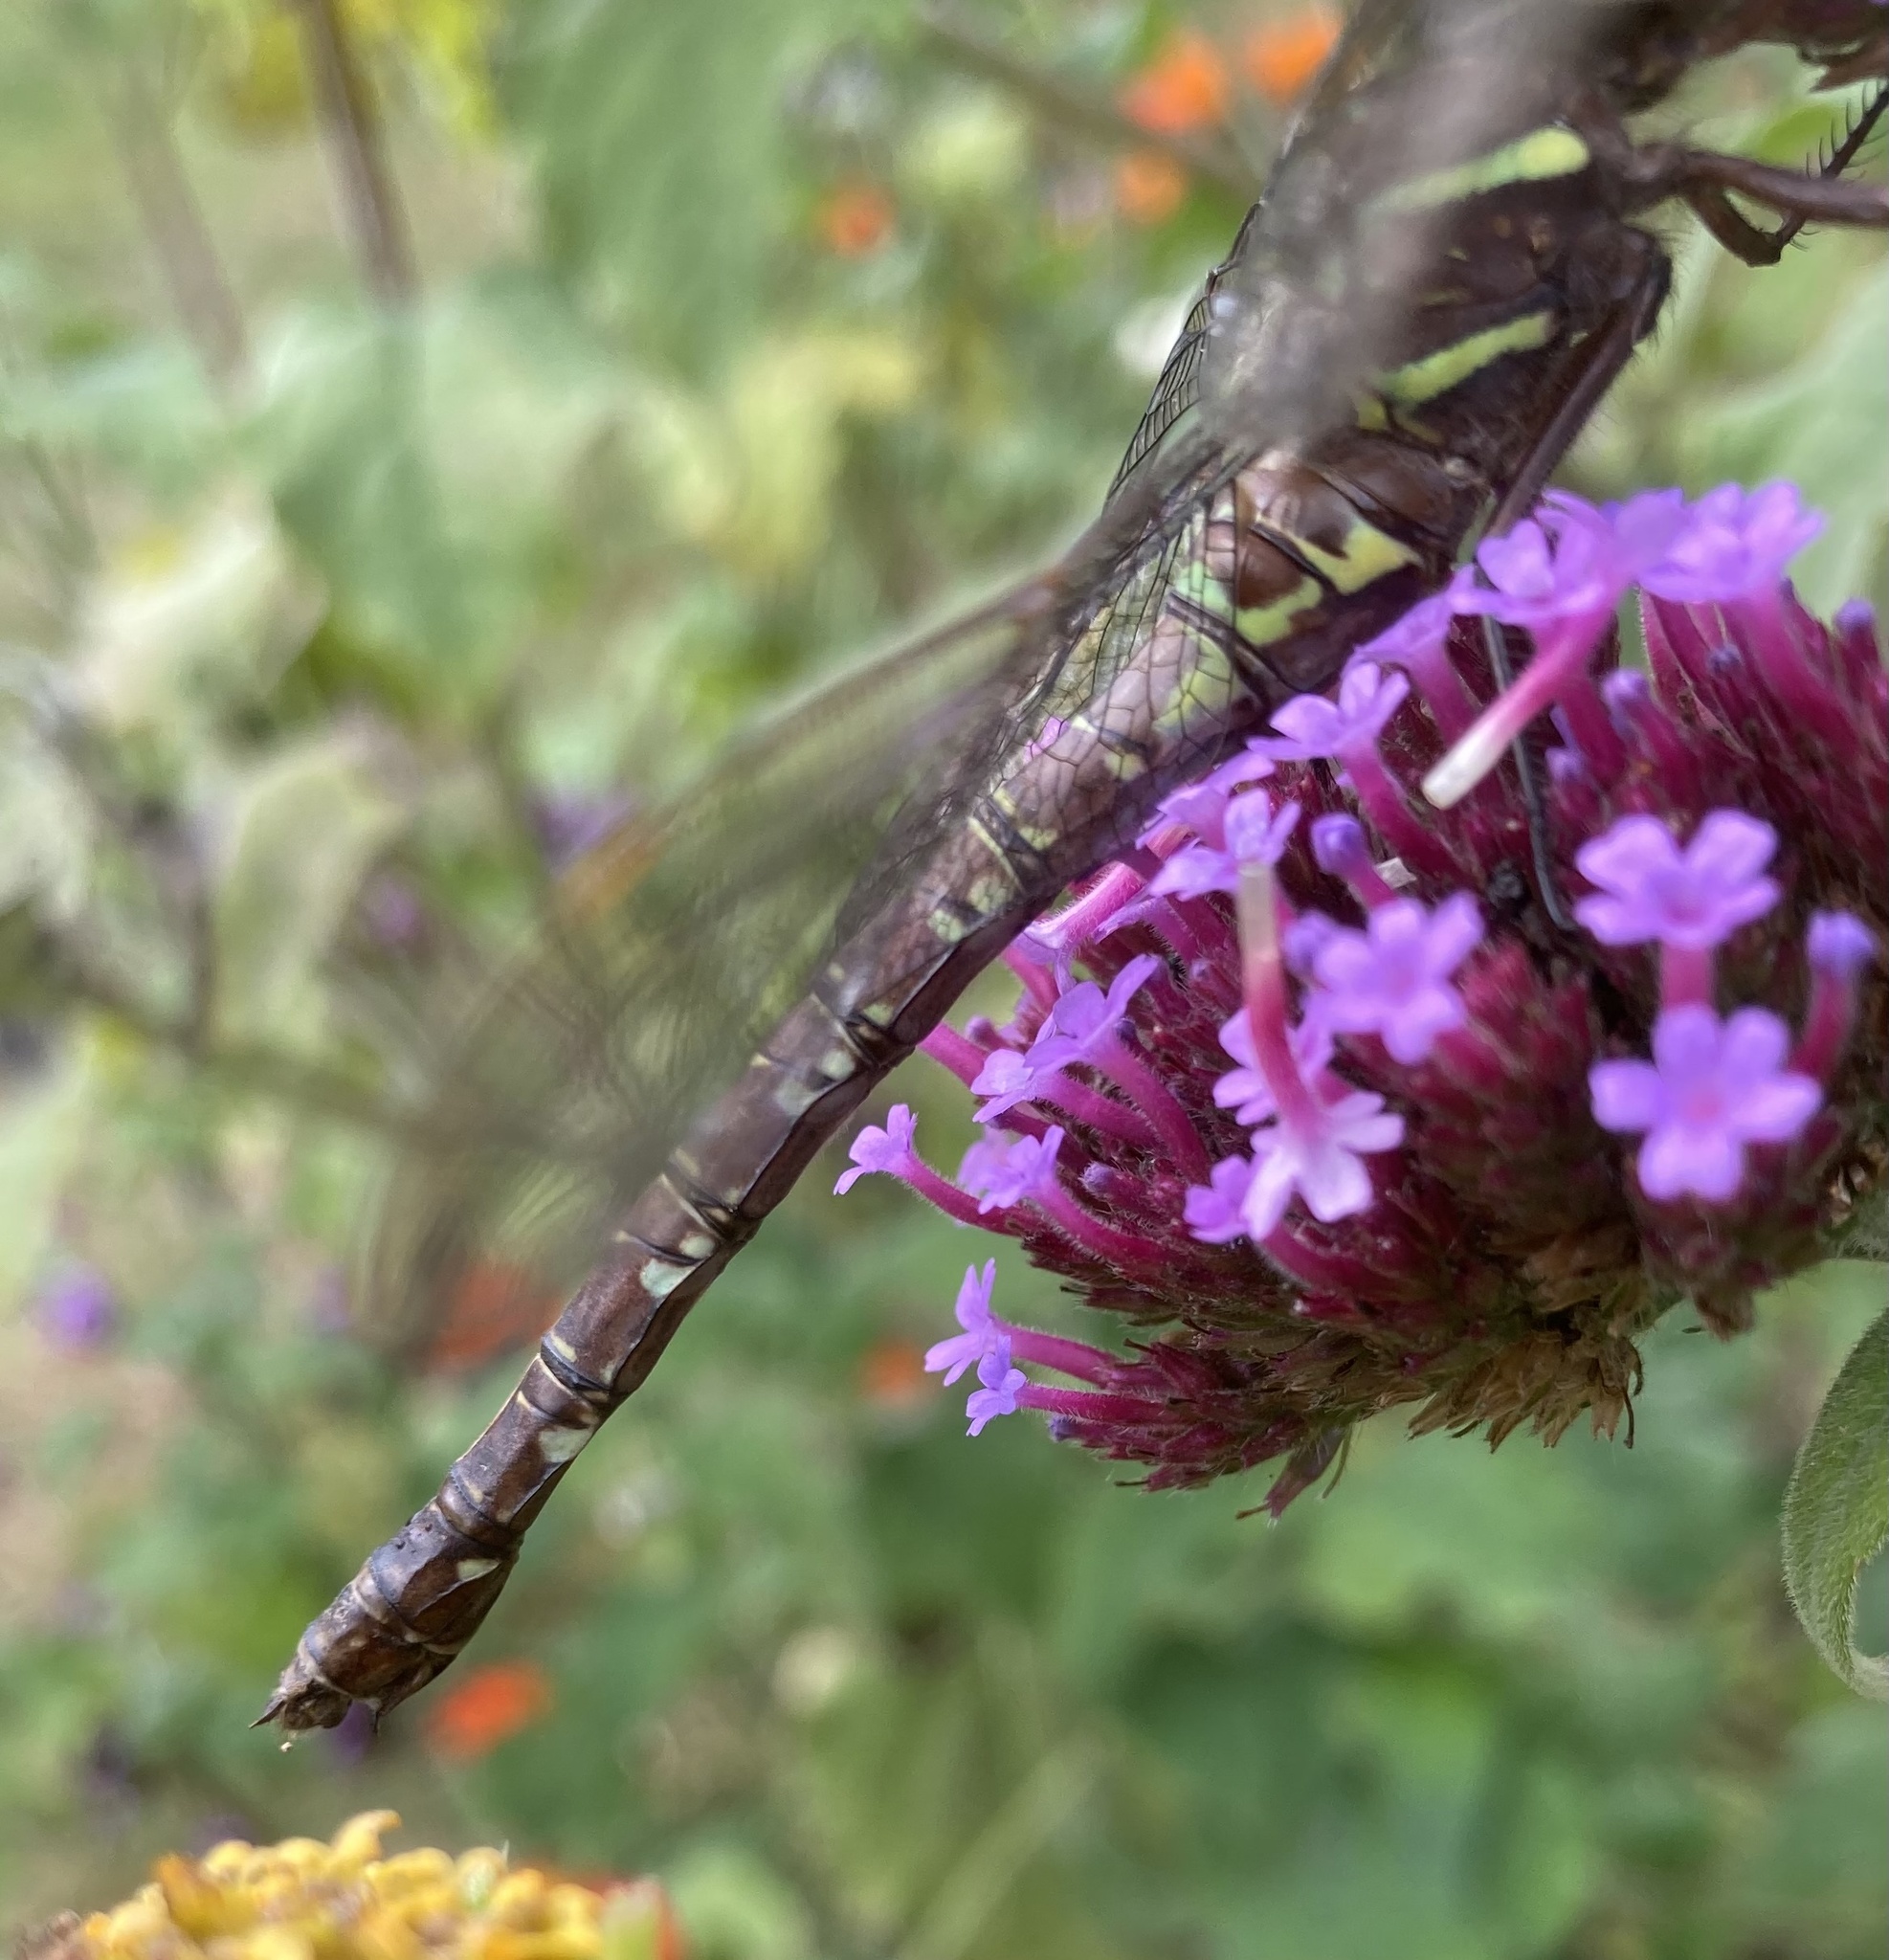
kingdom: Animalia
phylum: Arthropoda
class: Insecta
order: Odonata
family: Aeshnidae
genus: Aeshna
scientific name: Aeshna umbrosa
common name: Shadow darner
